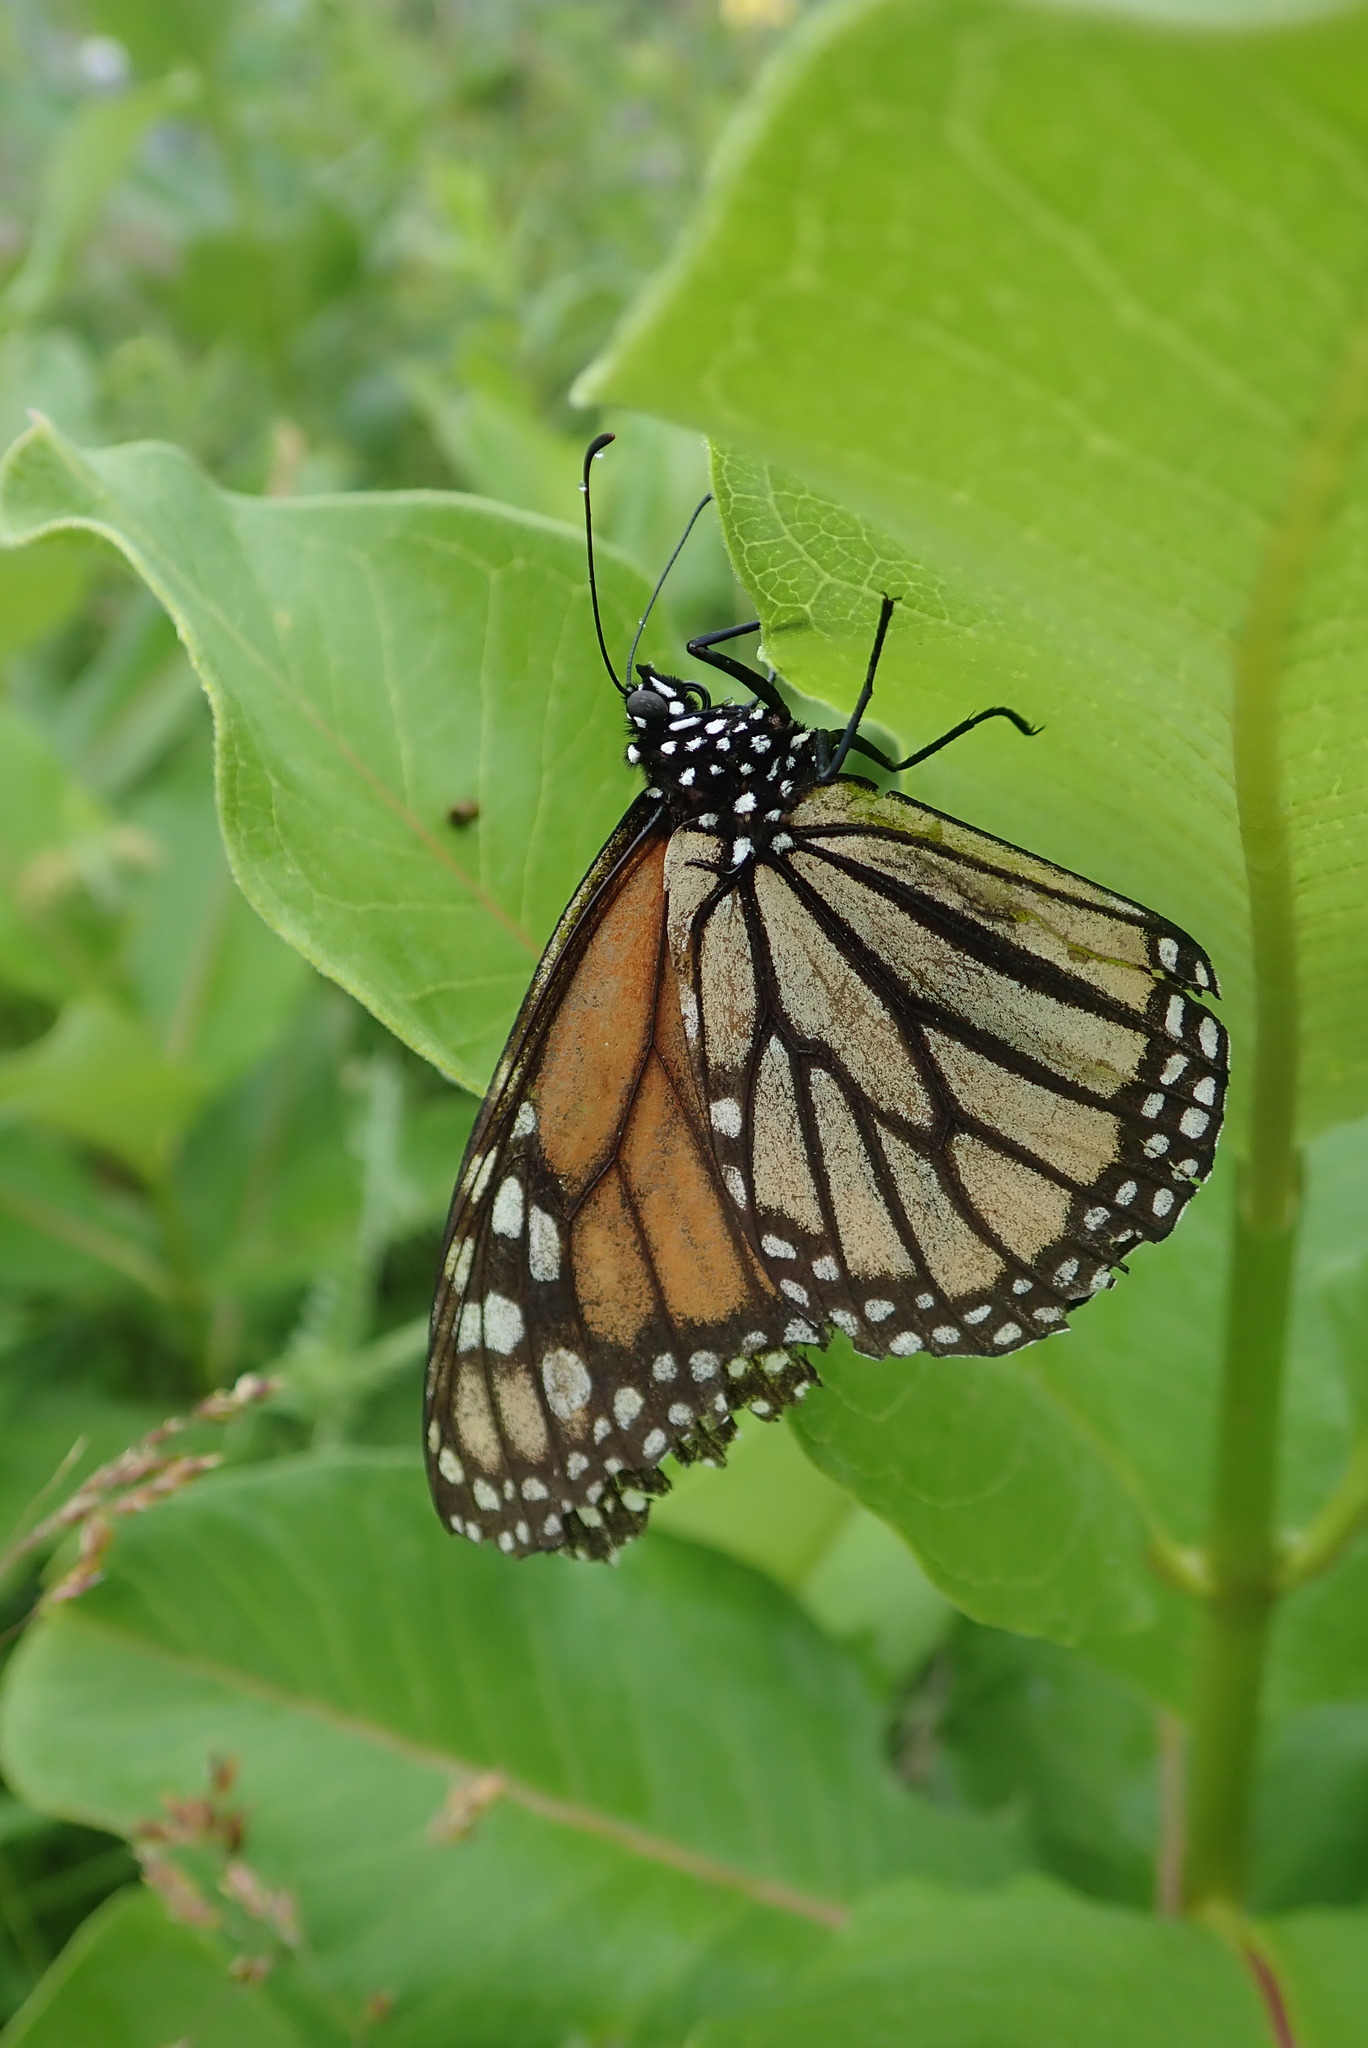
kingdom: Animalia
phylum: Arthropoda
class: Insecta
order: Lepidoptera
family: Nymphalidae
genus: Danaus
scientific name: Danaus plexippus
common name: Monarch
